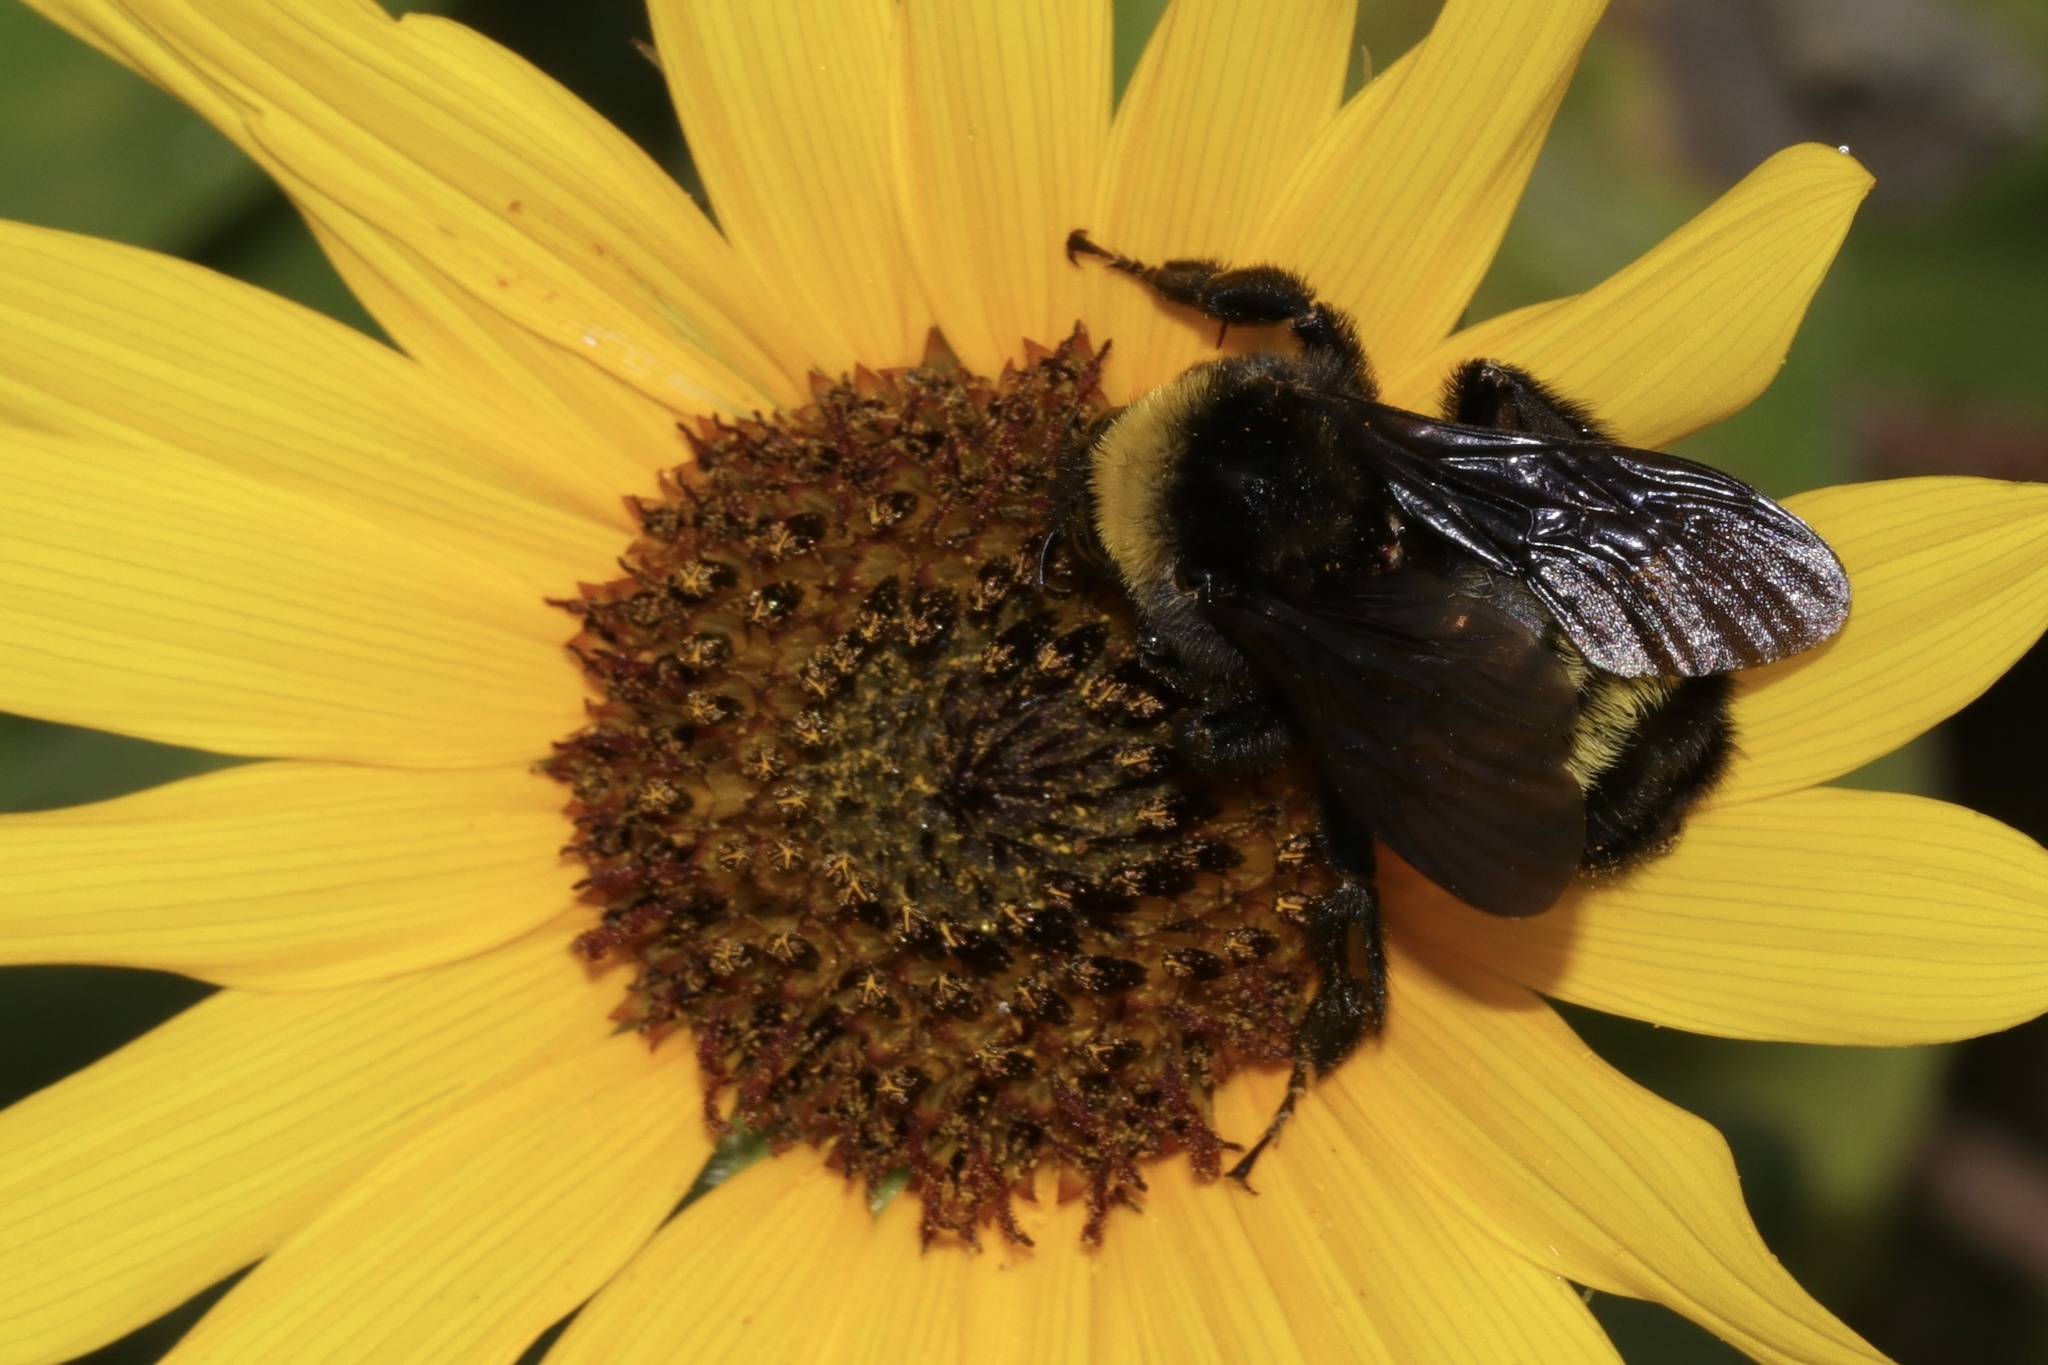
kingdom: Animalia
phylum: Arthropoda
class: Insecta
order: Hymenoptera
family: Apidae
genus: Bombus
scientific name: Bombus pensylvanicus
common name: Bumble bee
